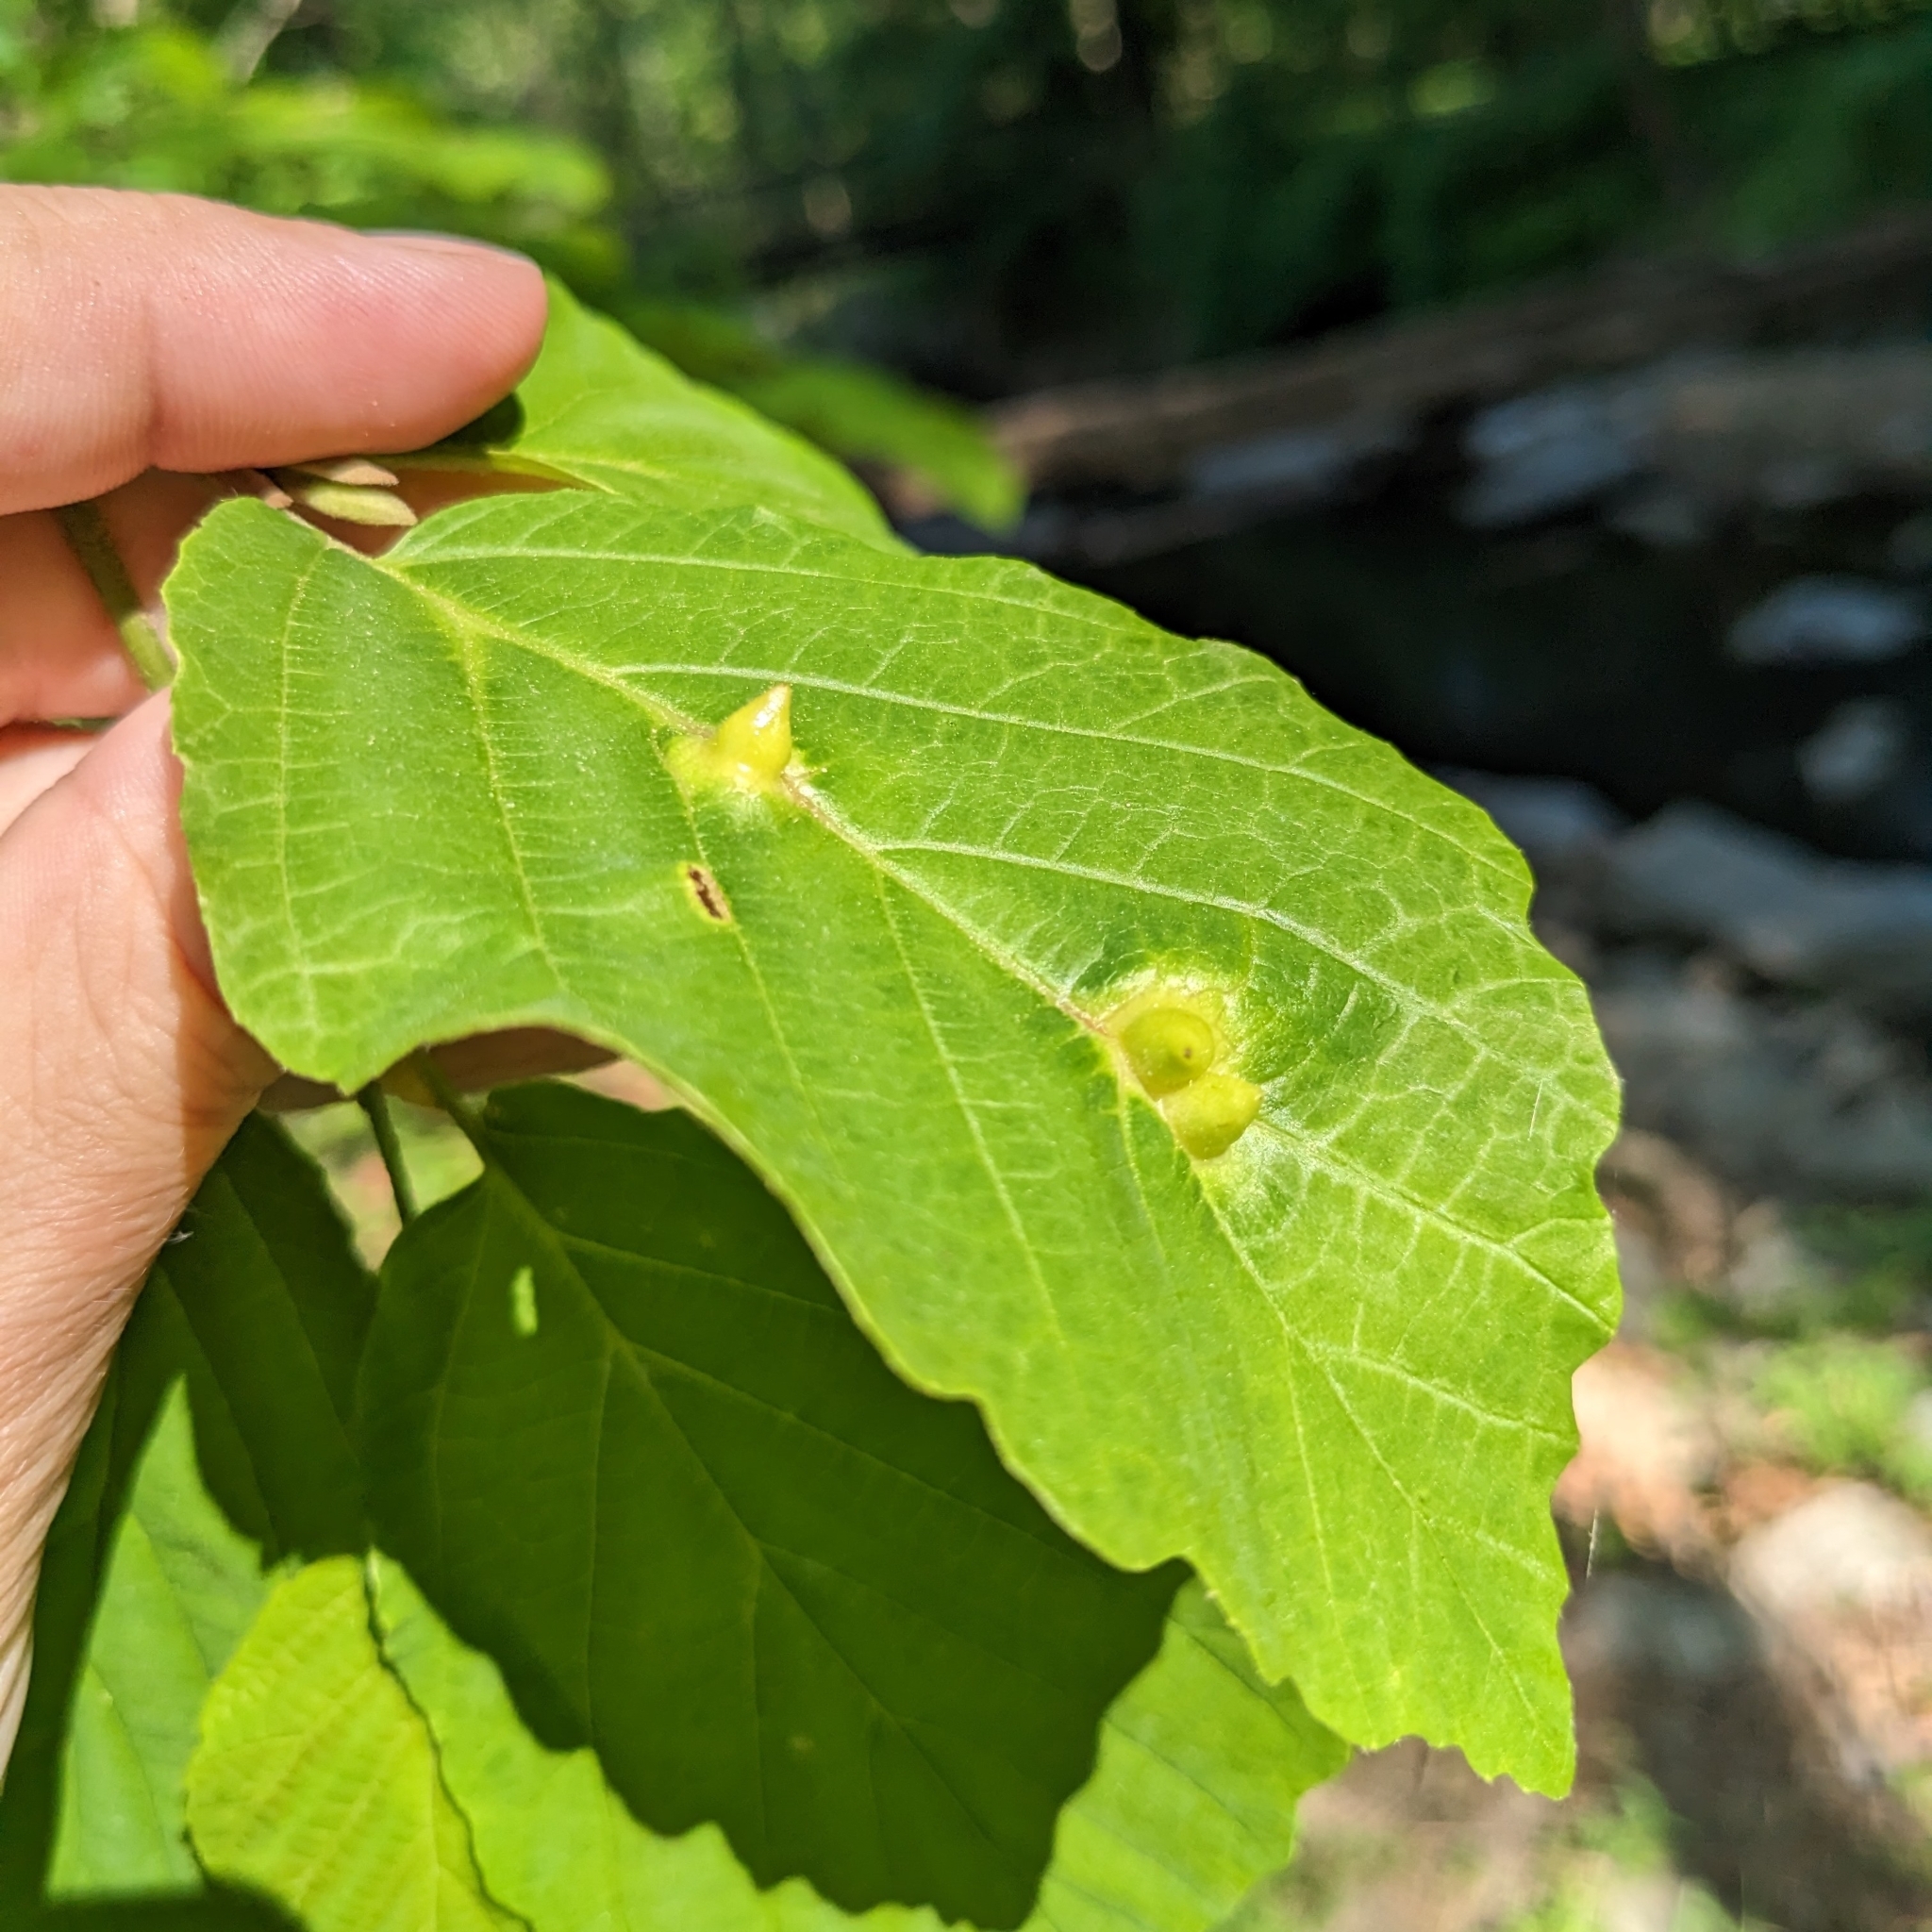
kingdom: Animalia
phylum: Arthropoda
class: Insecta
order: Hemiptera
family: Aphididae
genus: Hormaphis
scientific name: Hormaphis hamamelidis
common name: Witch-hazel cone gall aphid
